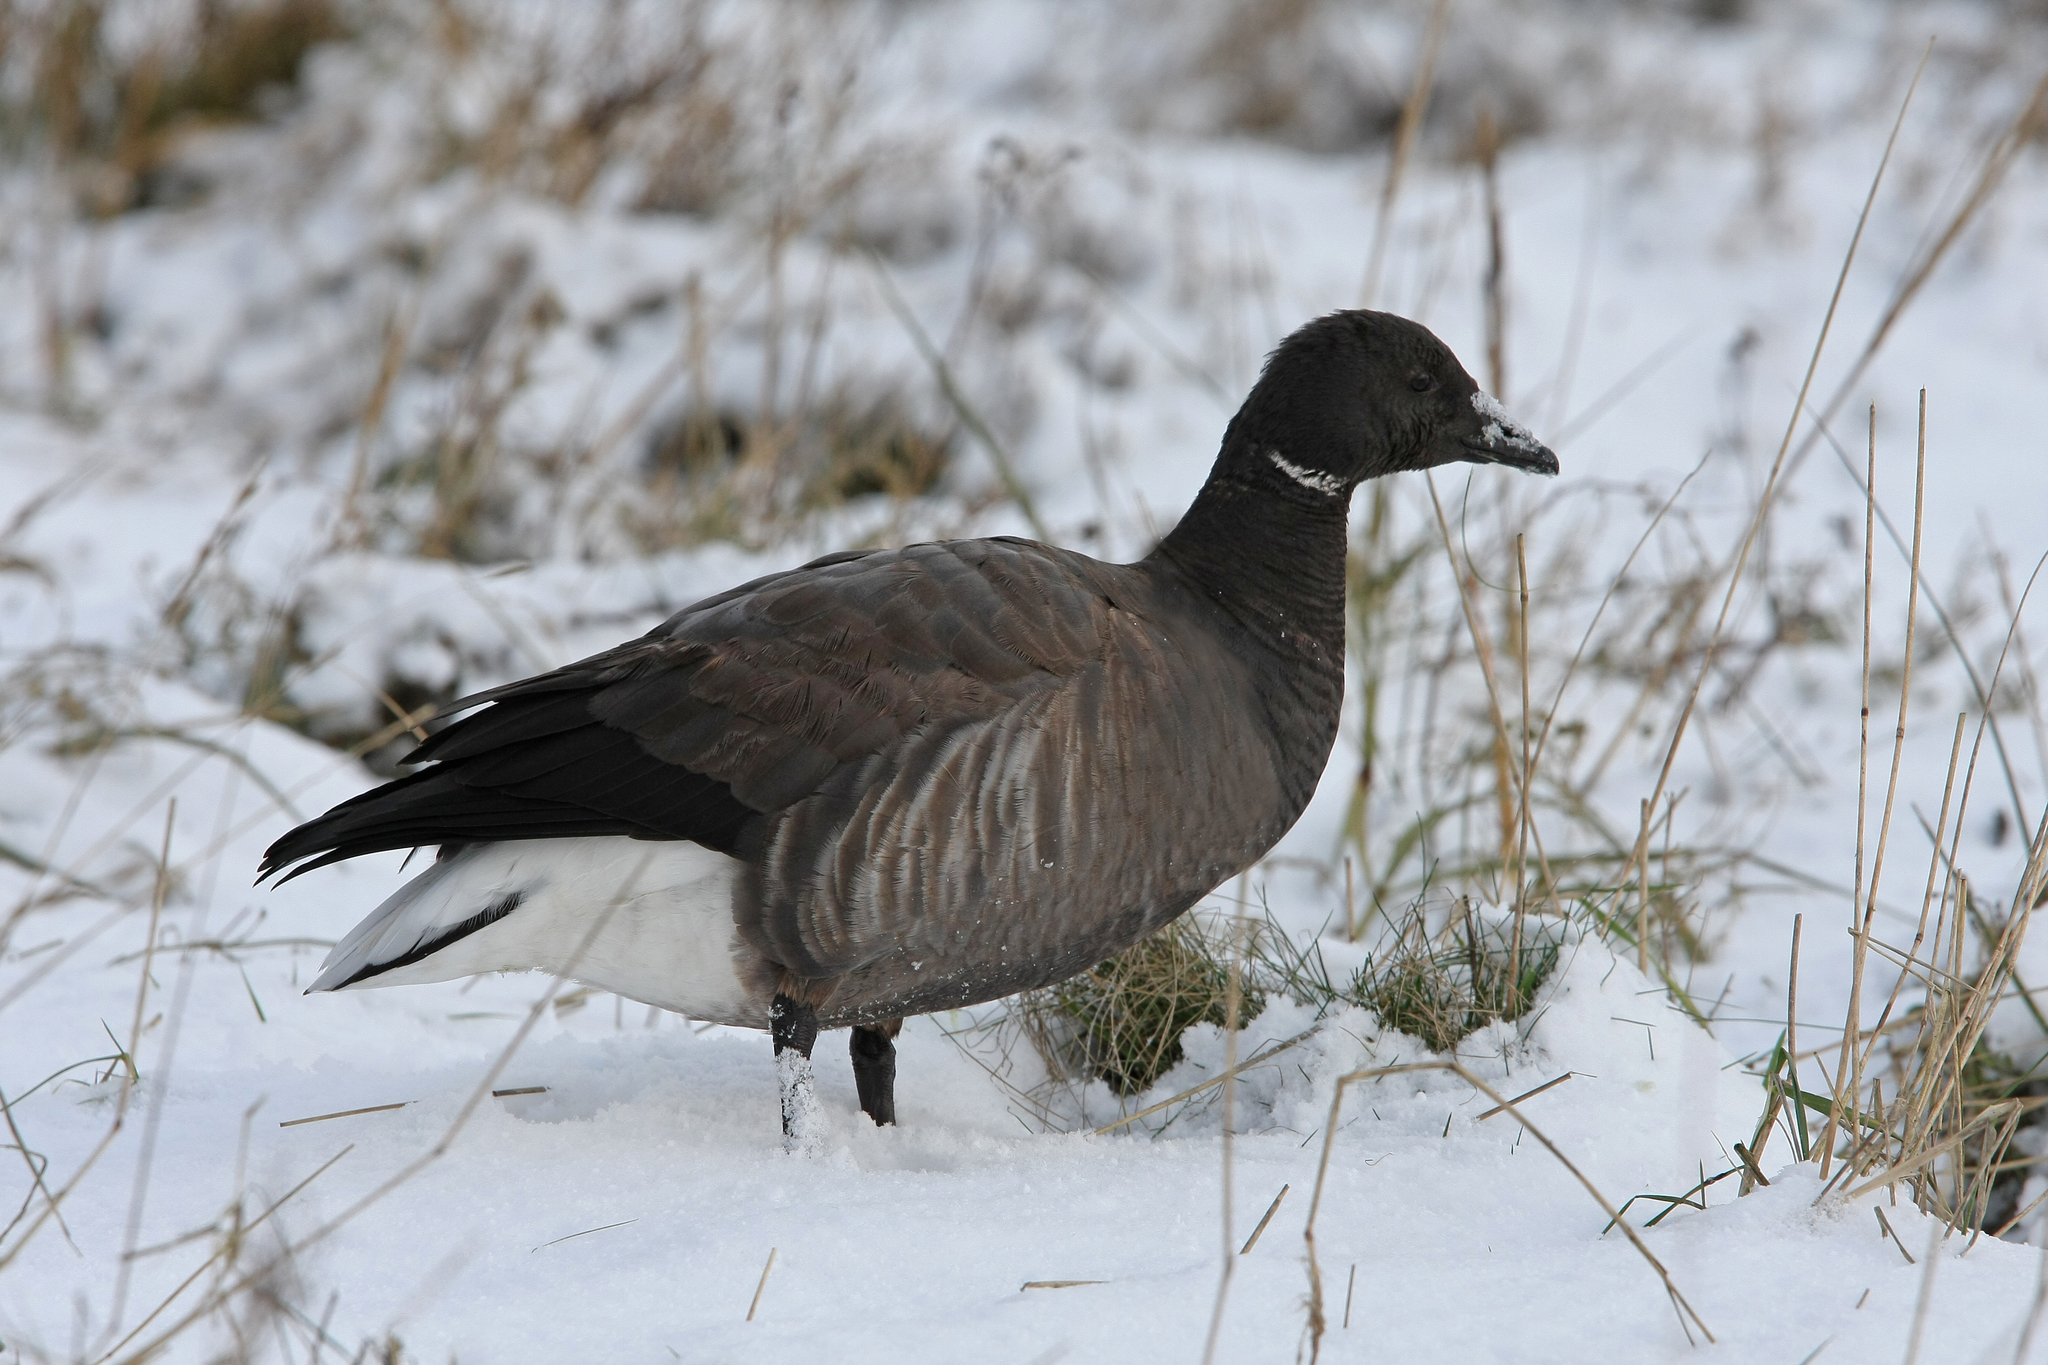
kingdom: Animalia
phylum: Chordata
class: Aves
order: Anseriformes
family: Anatidae
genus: Branta
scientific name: Branta bernicla
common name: Brant goose
